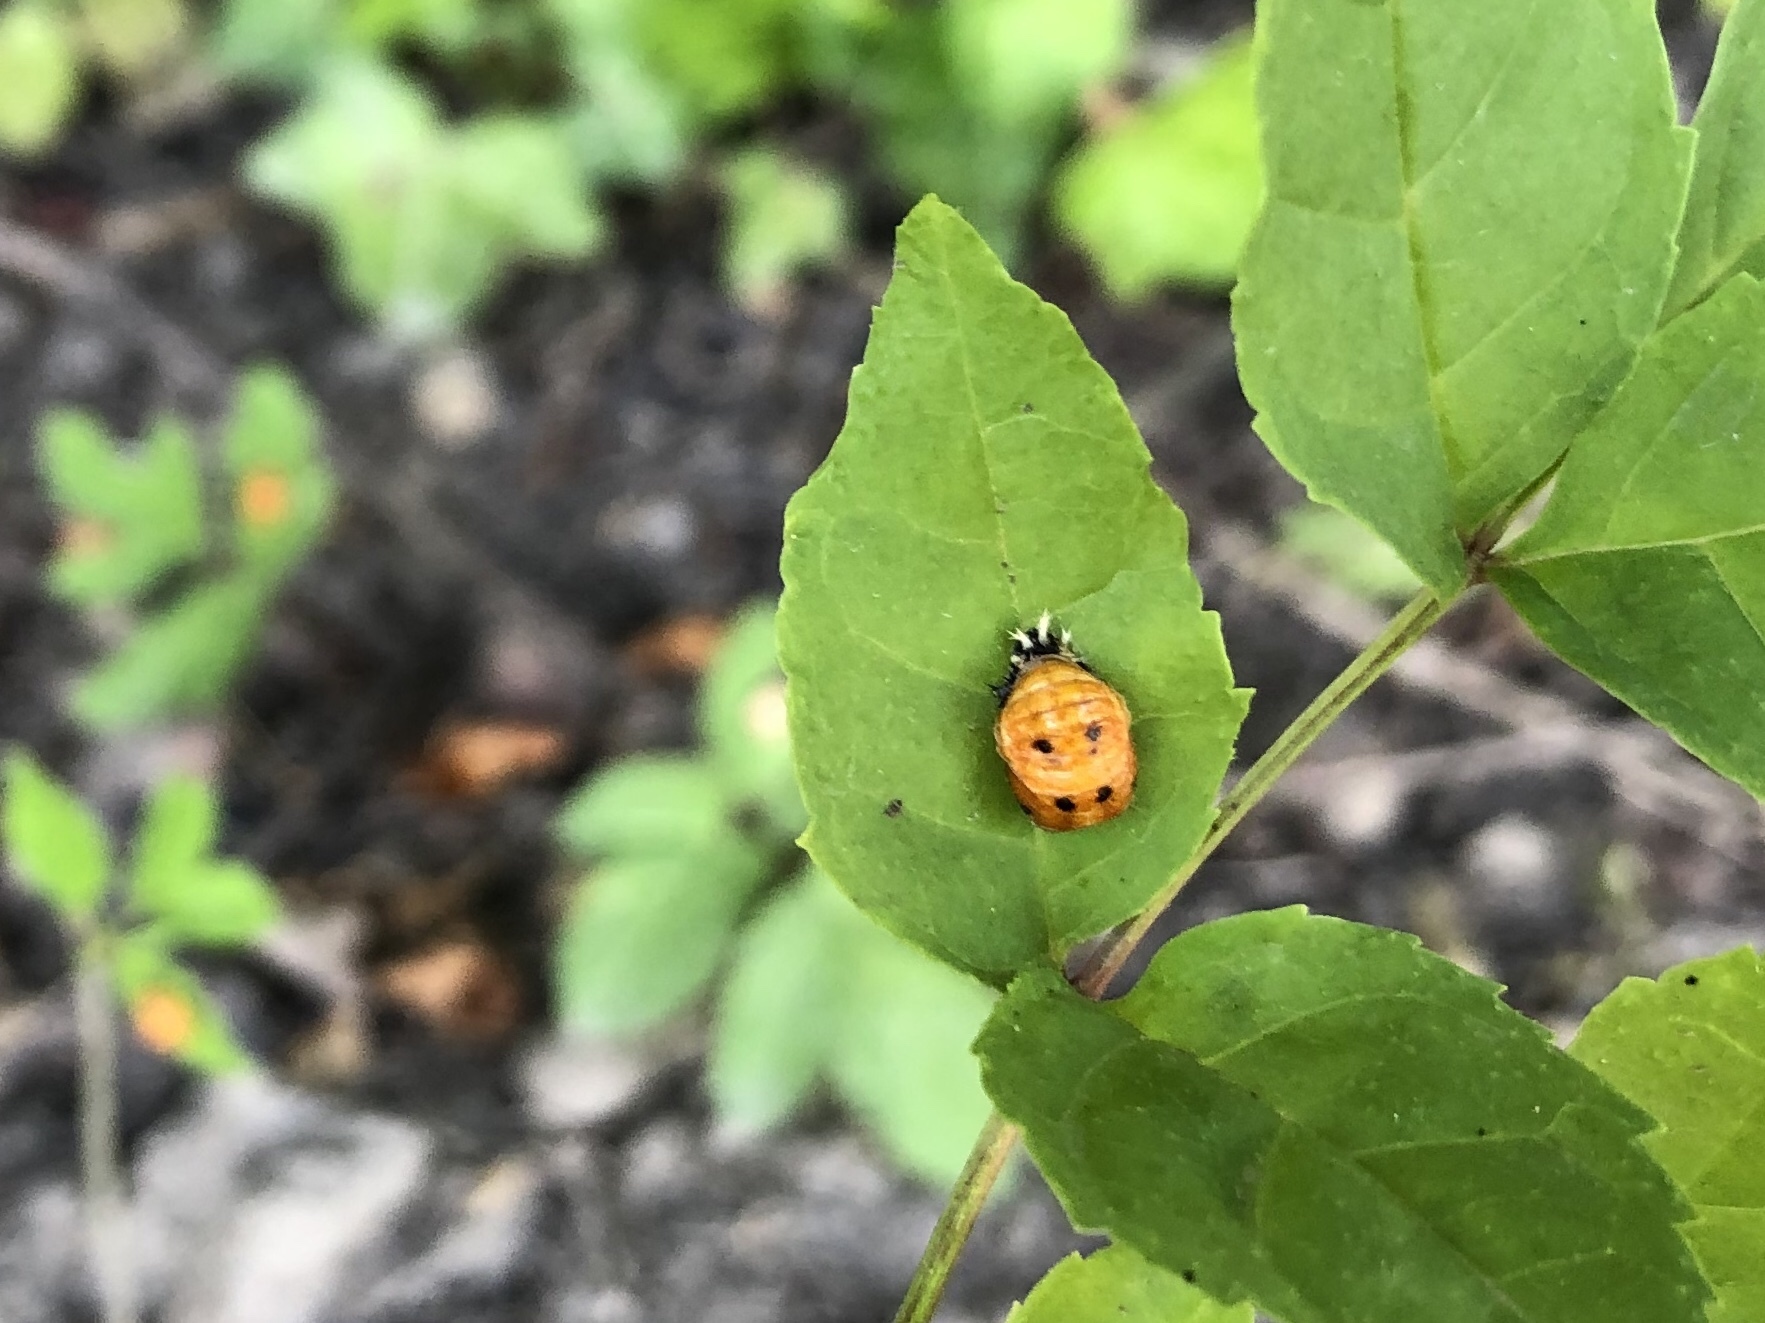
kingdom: Animalia
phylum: Arthropoda
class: Insecta
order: Coleoptera
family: Coccinellidae
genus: Harmonia
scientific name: Harmonia axyridis
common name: Harlequin ladybird
